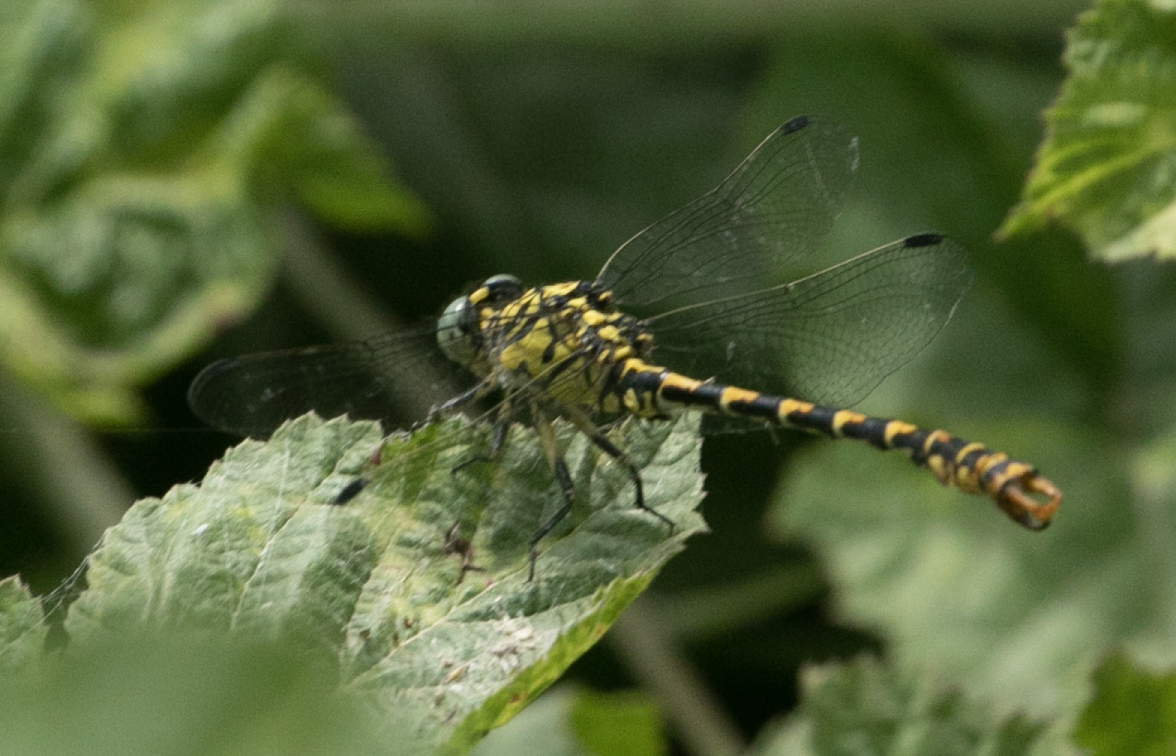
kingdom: Animalia
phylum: Arthropoda
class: Insecta
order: Odonata
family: Gomphidae
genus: Onychogomphus
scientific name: Onychogomphus forcipatus
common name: Small pincertail
